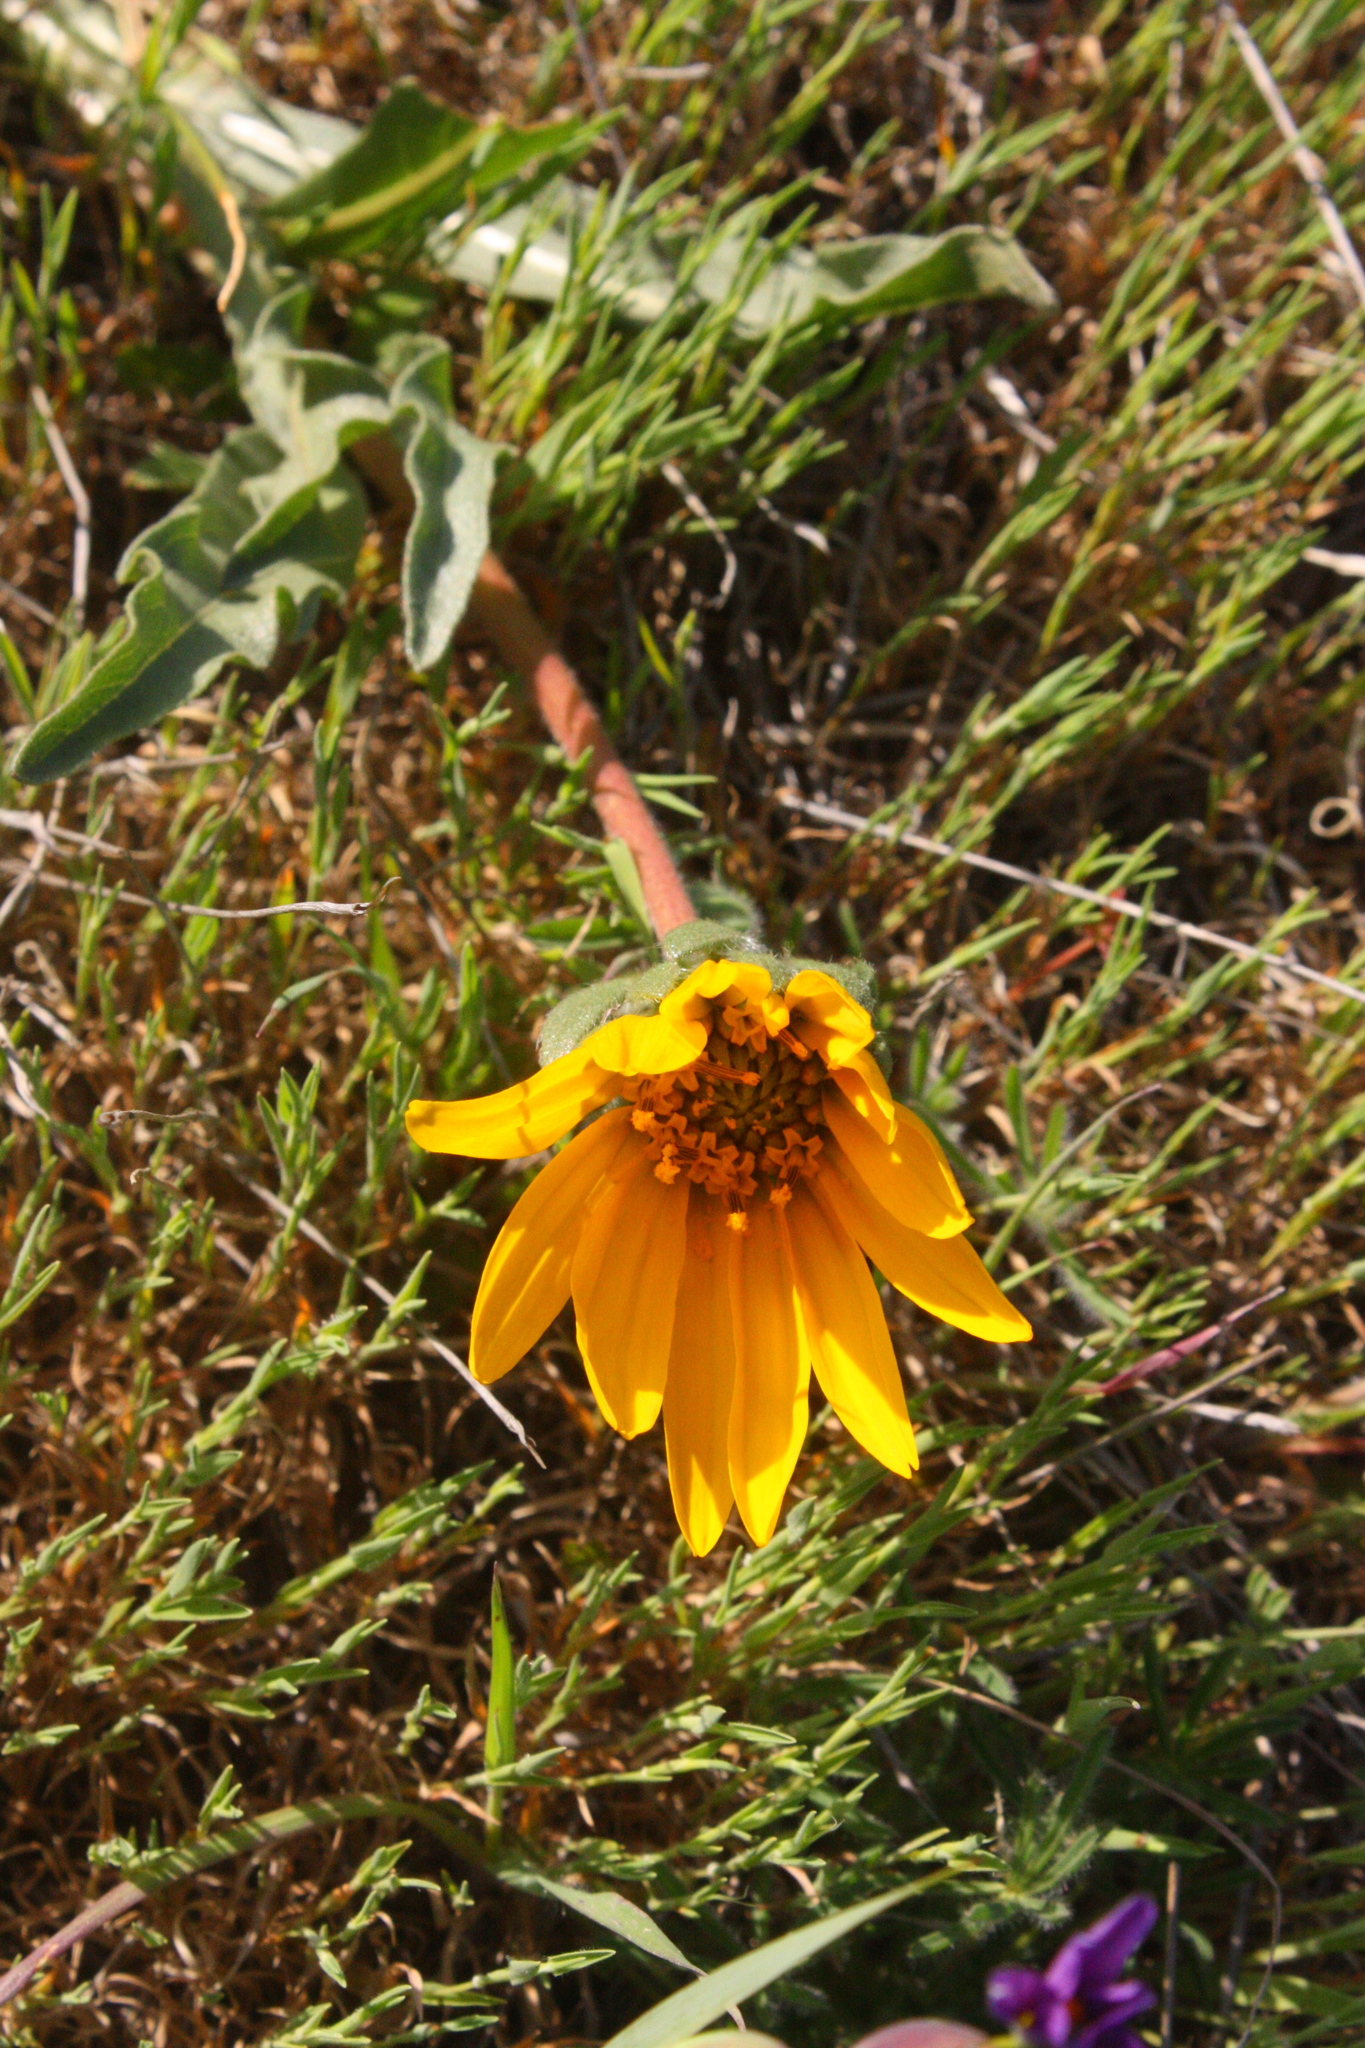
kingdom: Plantae
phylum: Tracheophyta
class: Magnoliopsida
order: Asterales
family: Asteraceae
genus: Wyethia
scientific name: Wyethia angustifolia
